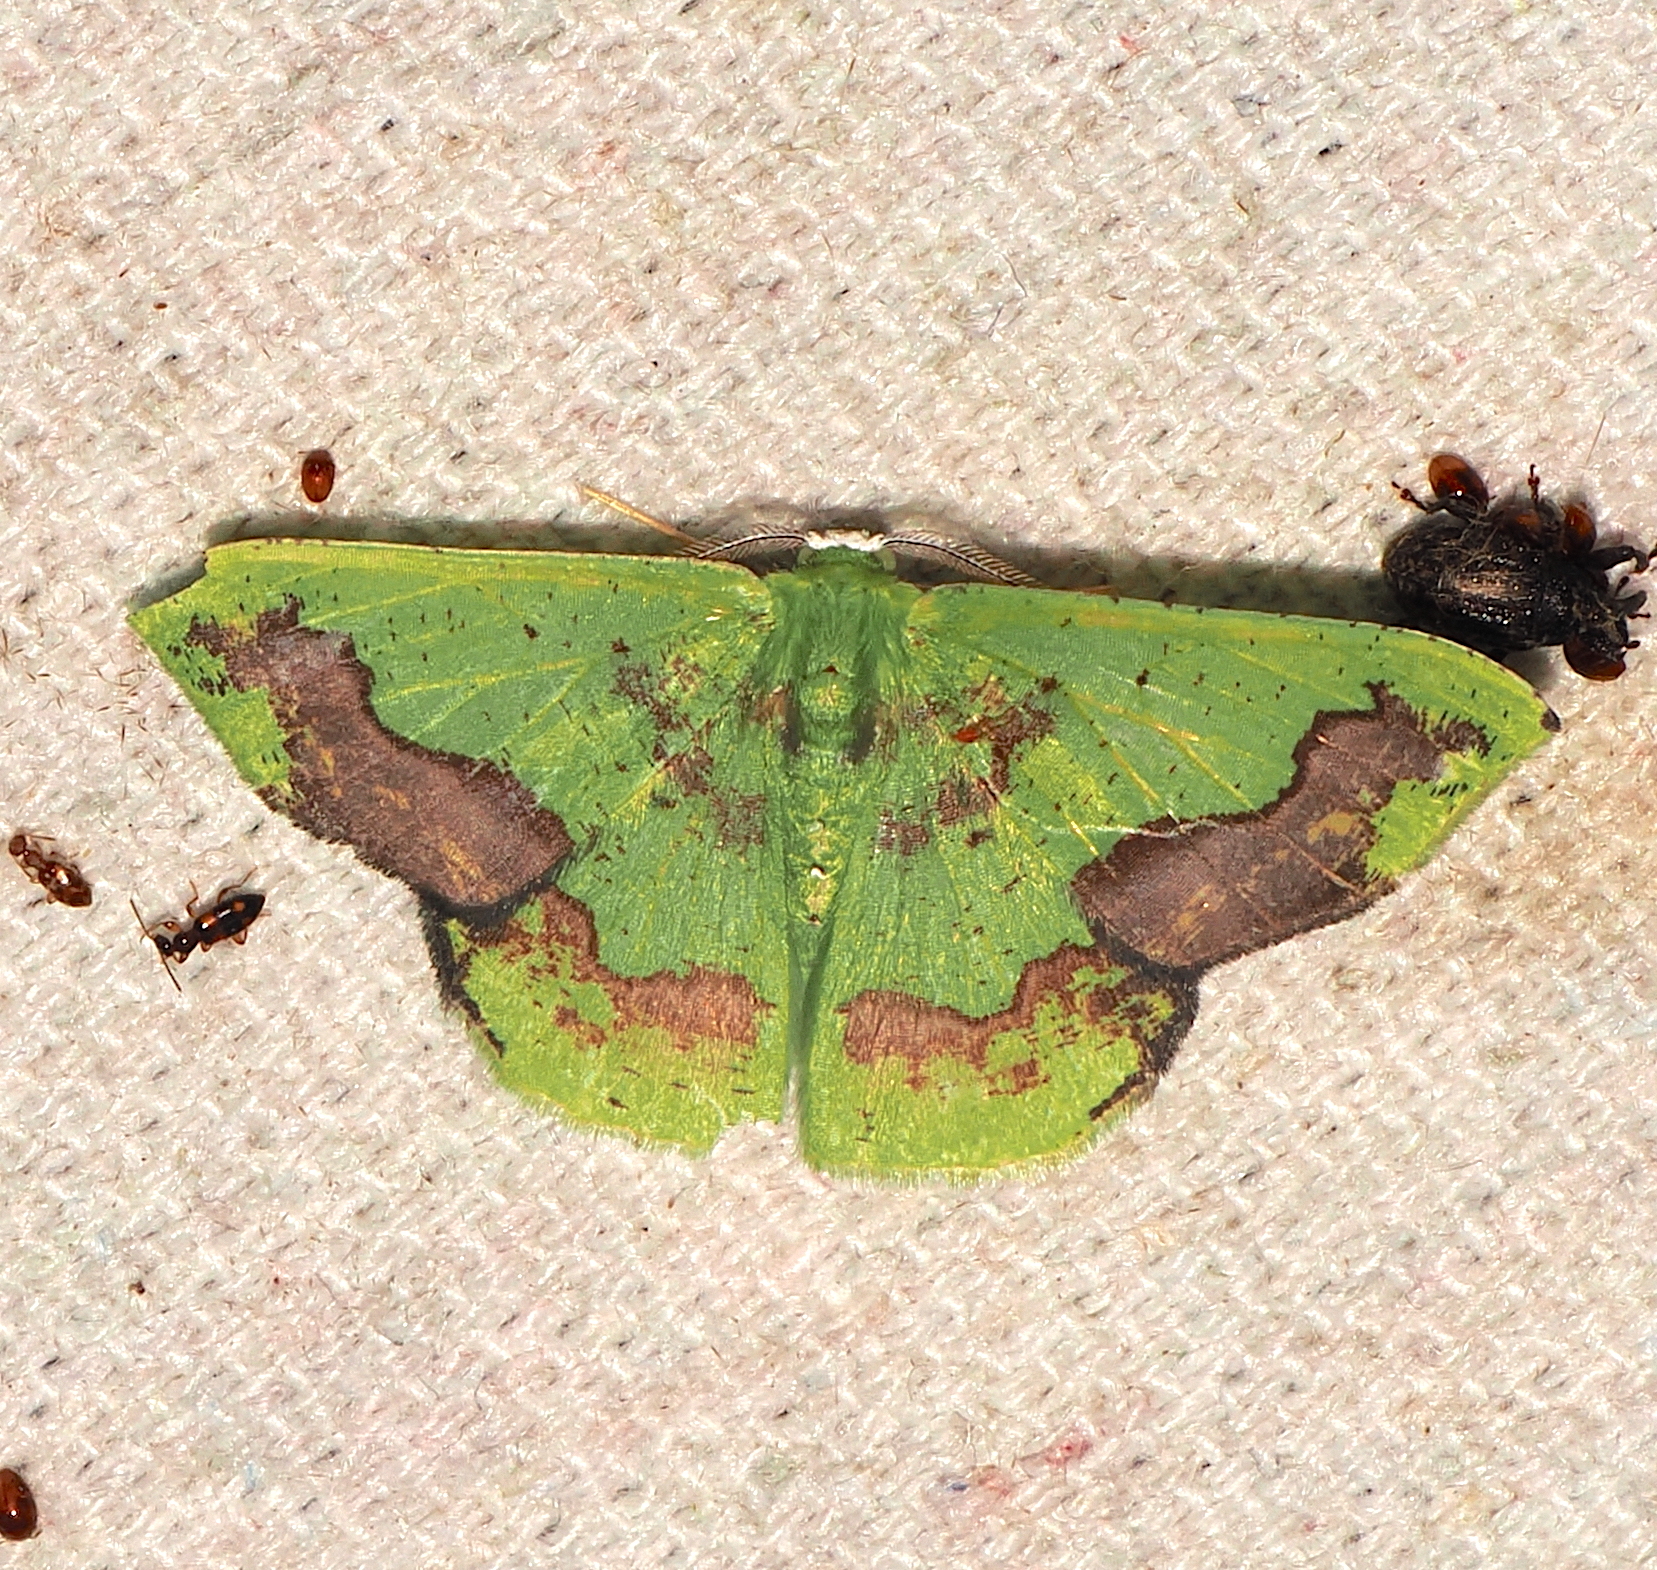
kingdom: Animalia
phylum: Arthropoda
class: Insecta
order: Lepidoptera
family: Geometridae
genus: Phrudocentra
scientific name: Phrudocentra janeira
